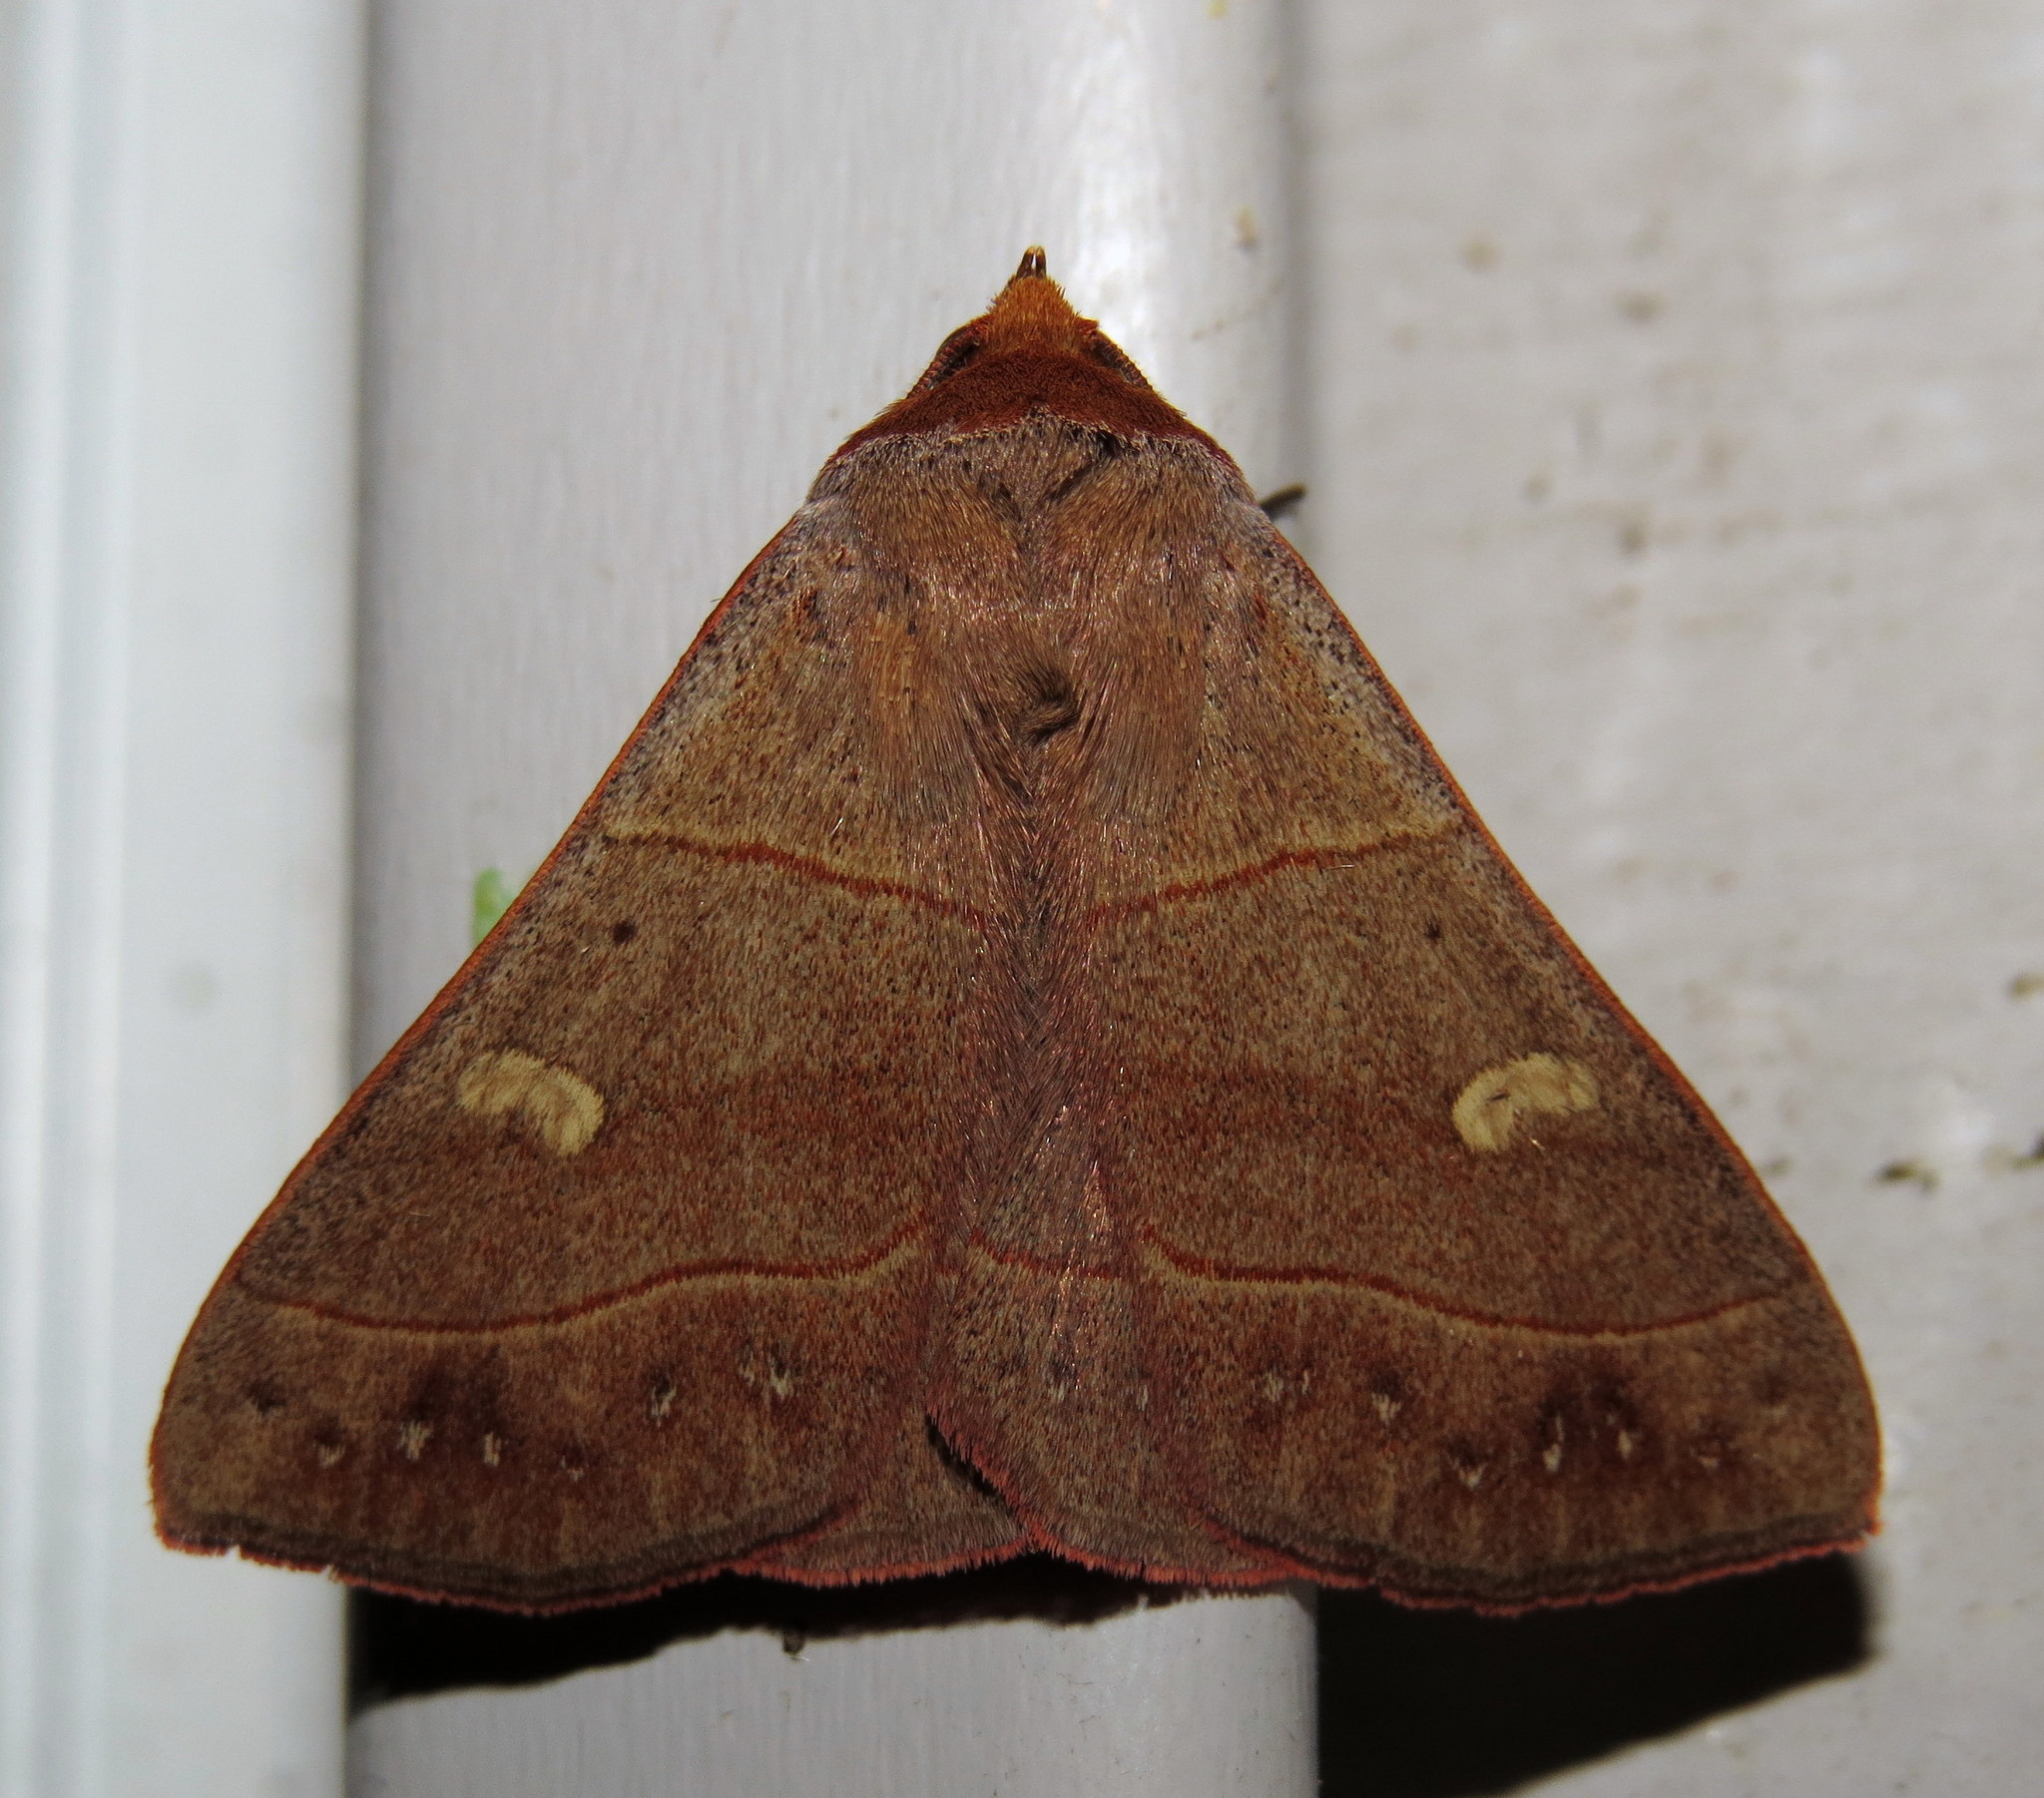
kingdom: Animalia
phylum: Arthropoda
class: Insecta
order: Lepidoptera
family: Erebidae
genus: Panopoda
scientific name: Panopoda rufimargo
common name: Red-lined panopoda moth
